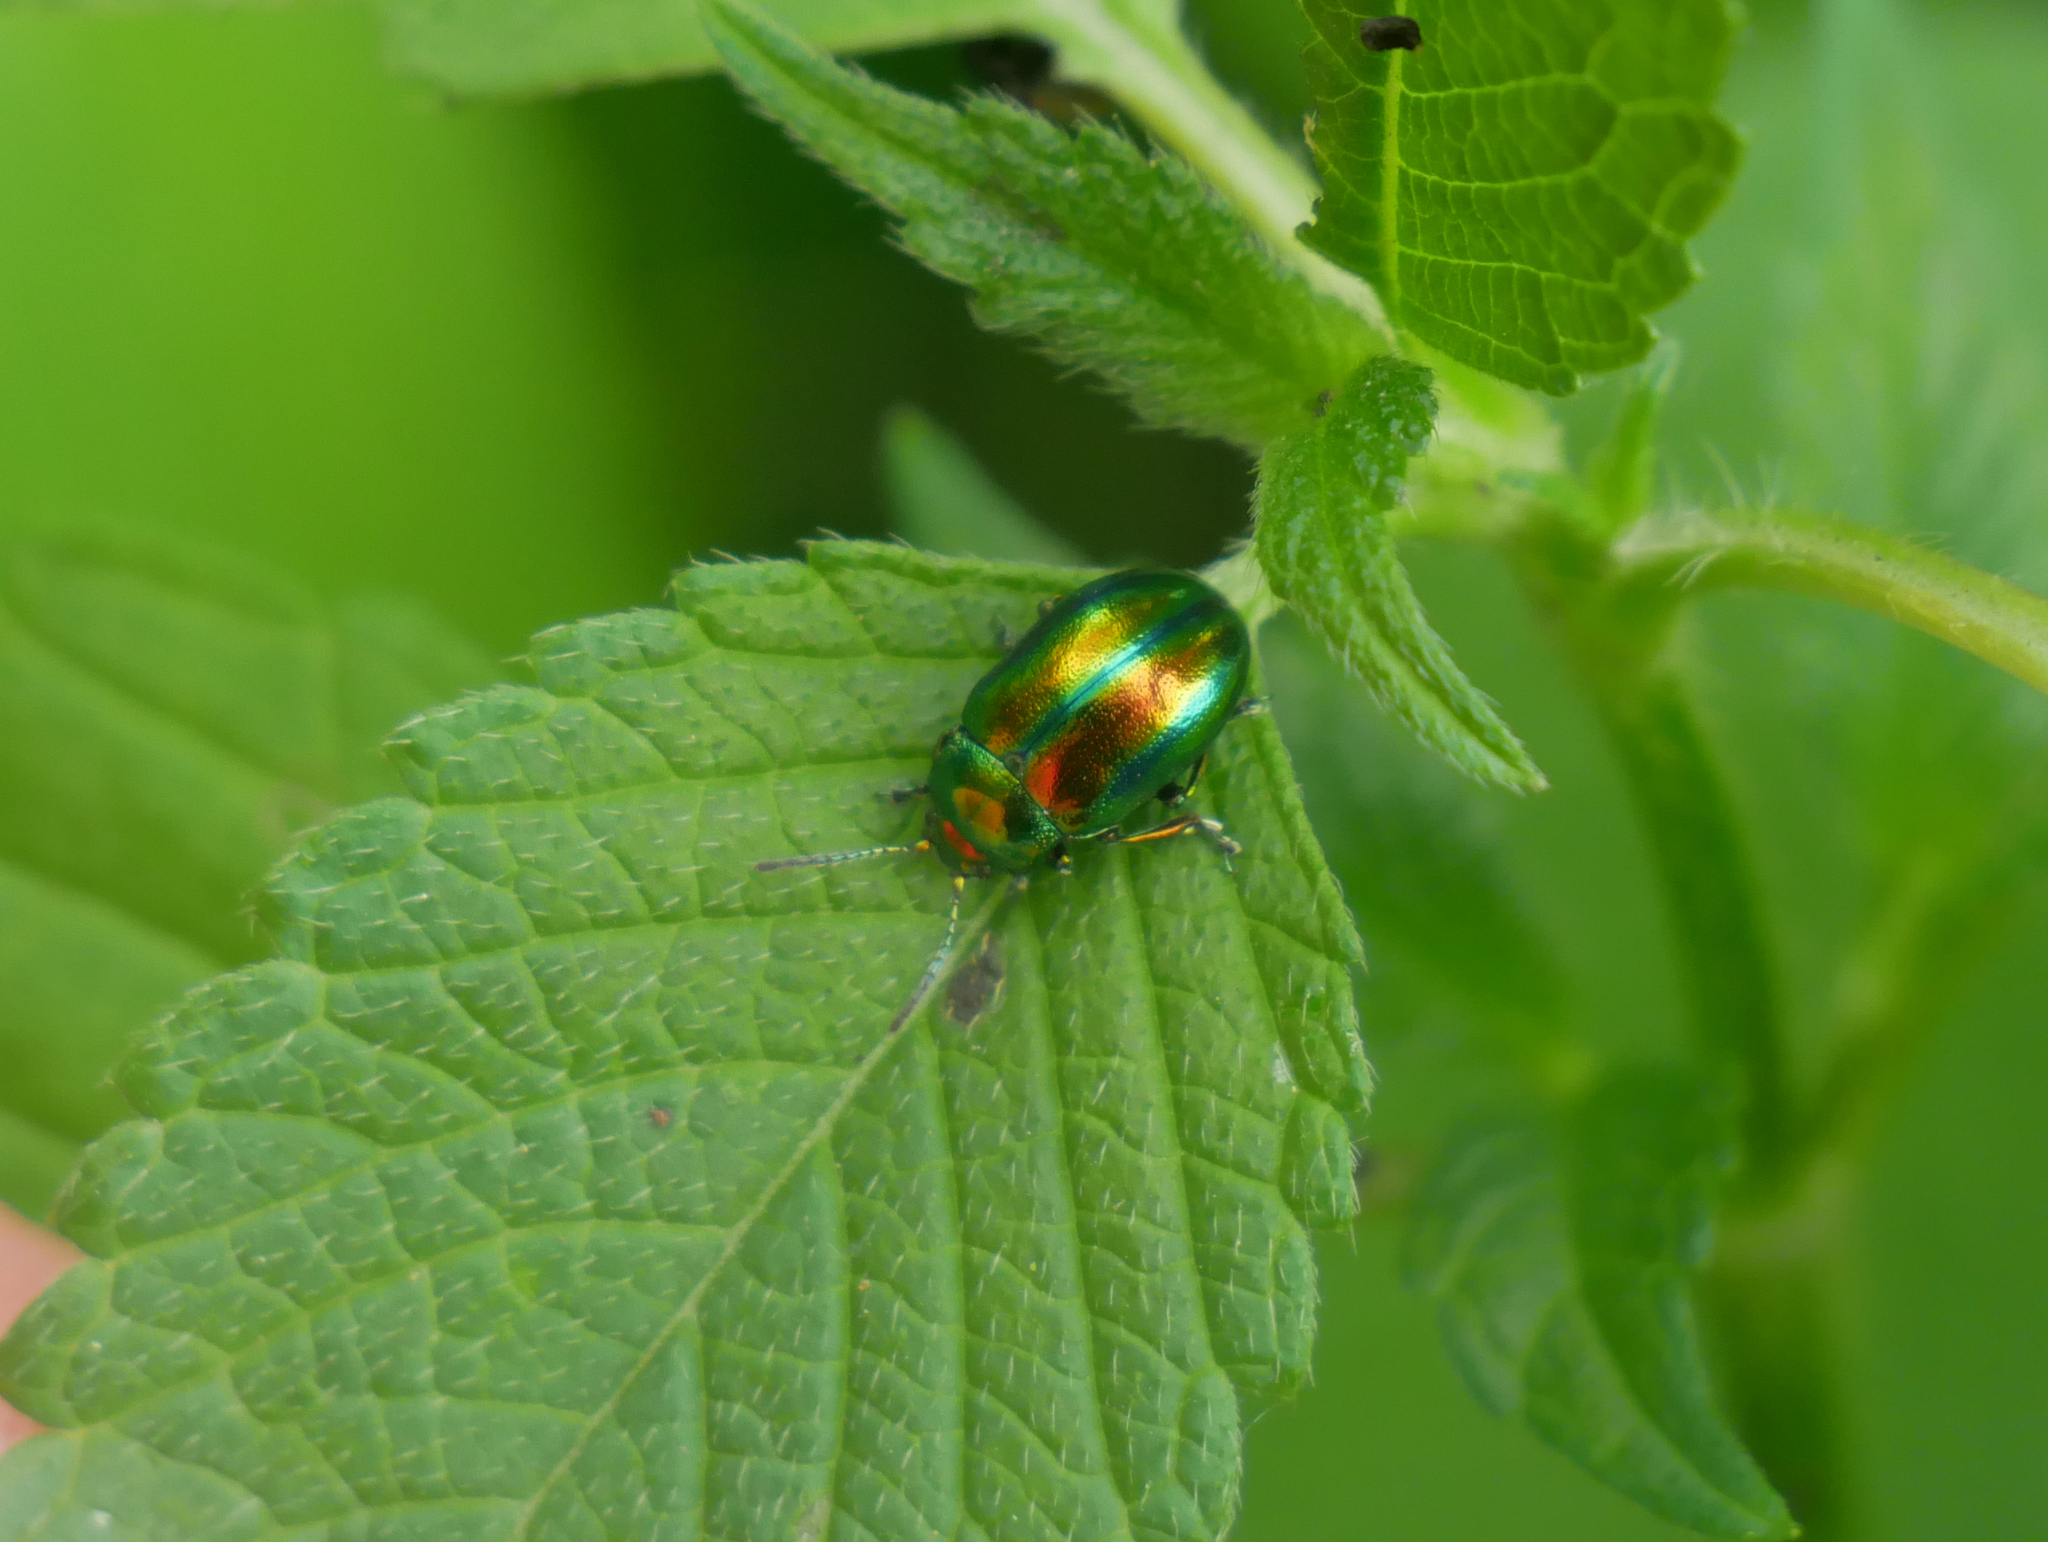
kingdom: Animalia
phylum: Arthropoda
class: Insecta
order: Coleoptera
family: Chrysomelidae
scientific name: Chrysomelidae
